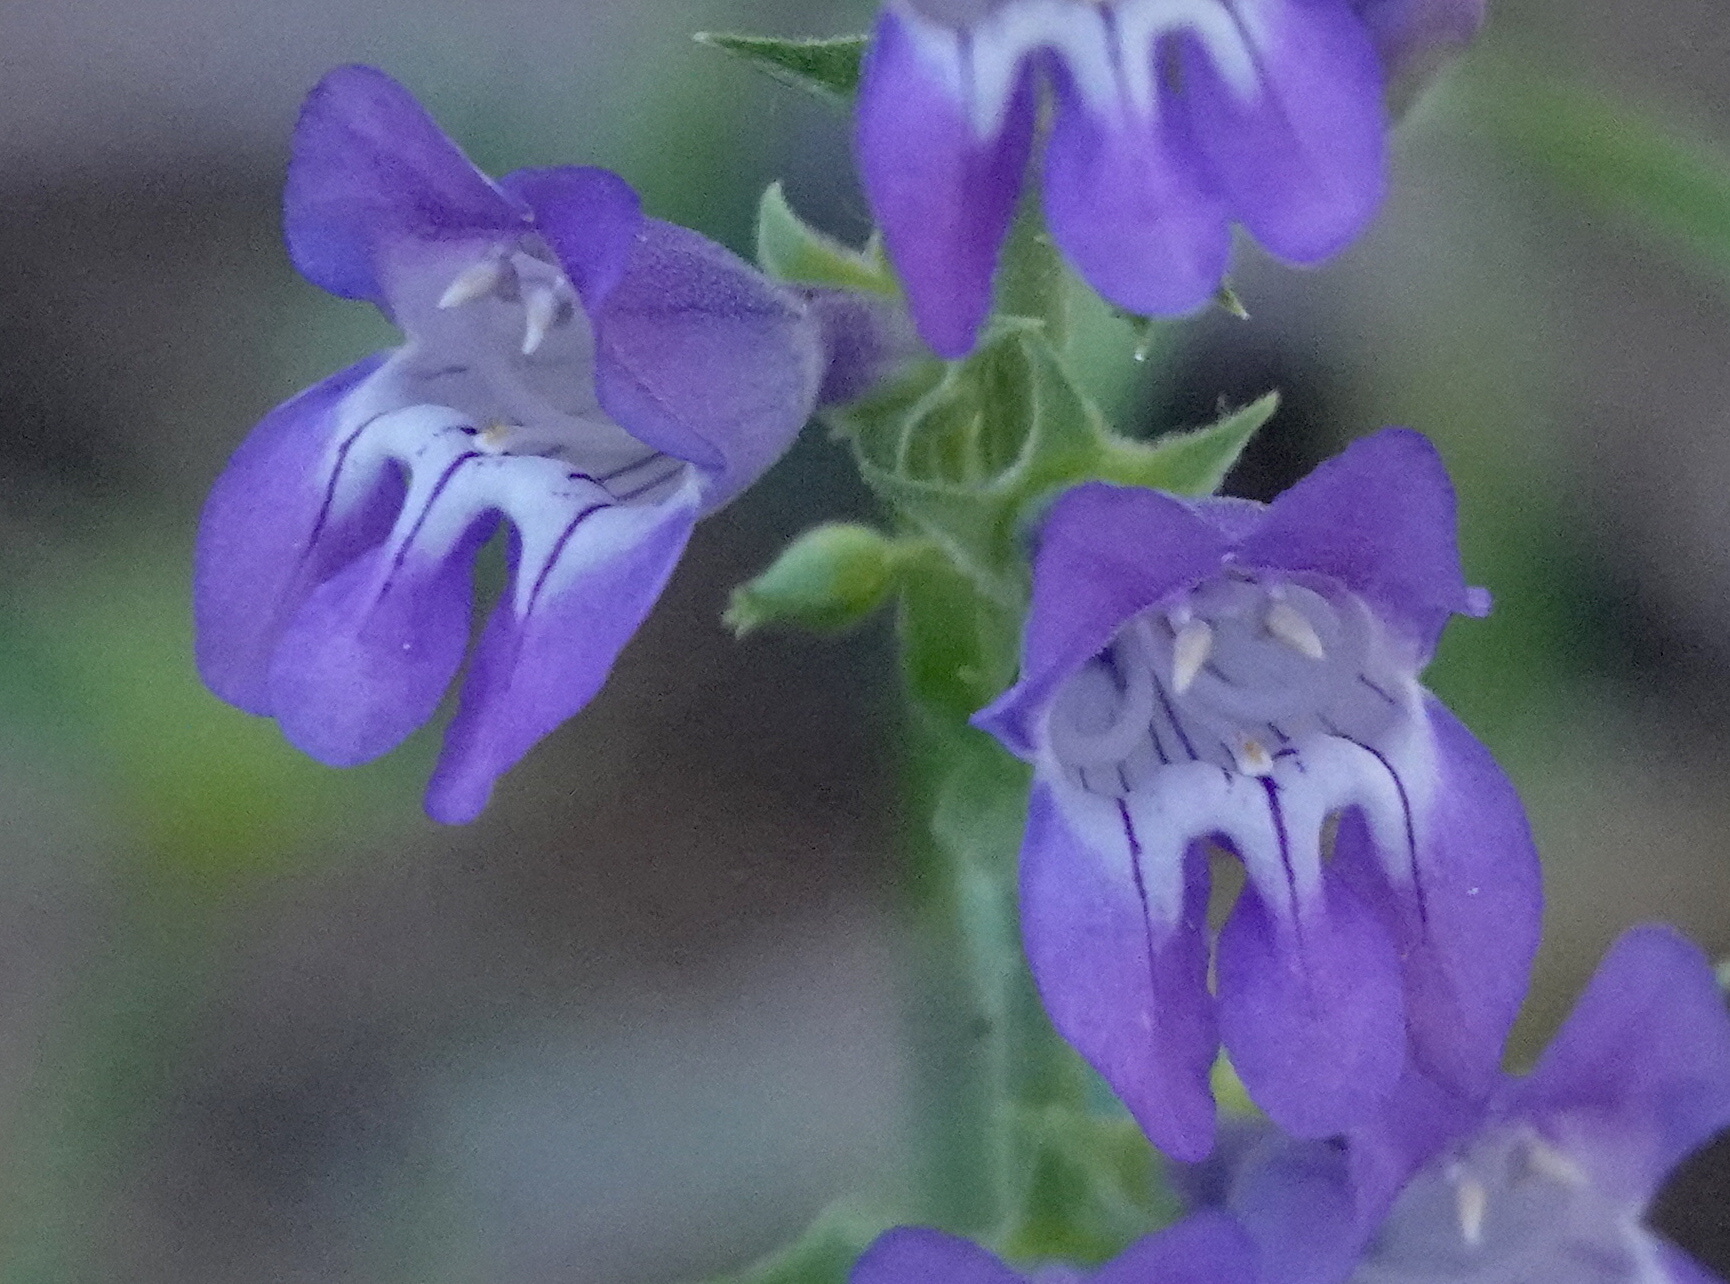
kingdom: Plantae
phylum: Tracheophyta
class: Magnoliopsida
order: Lamiales
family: Plantaginaceae
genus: Penstemon
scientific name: Penstemon leiophyllus
